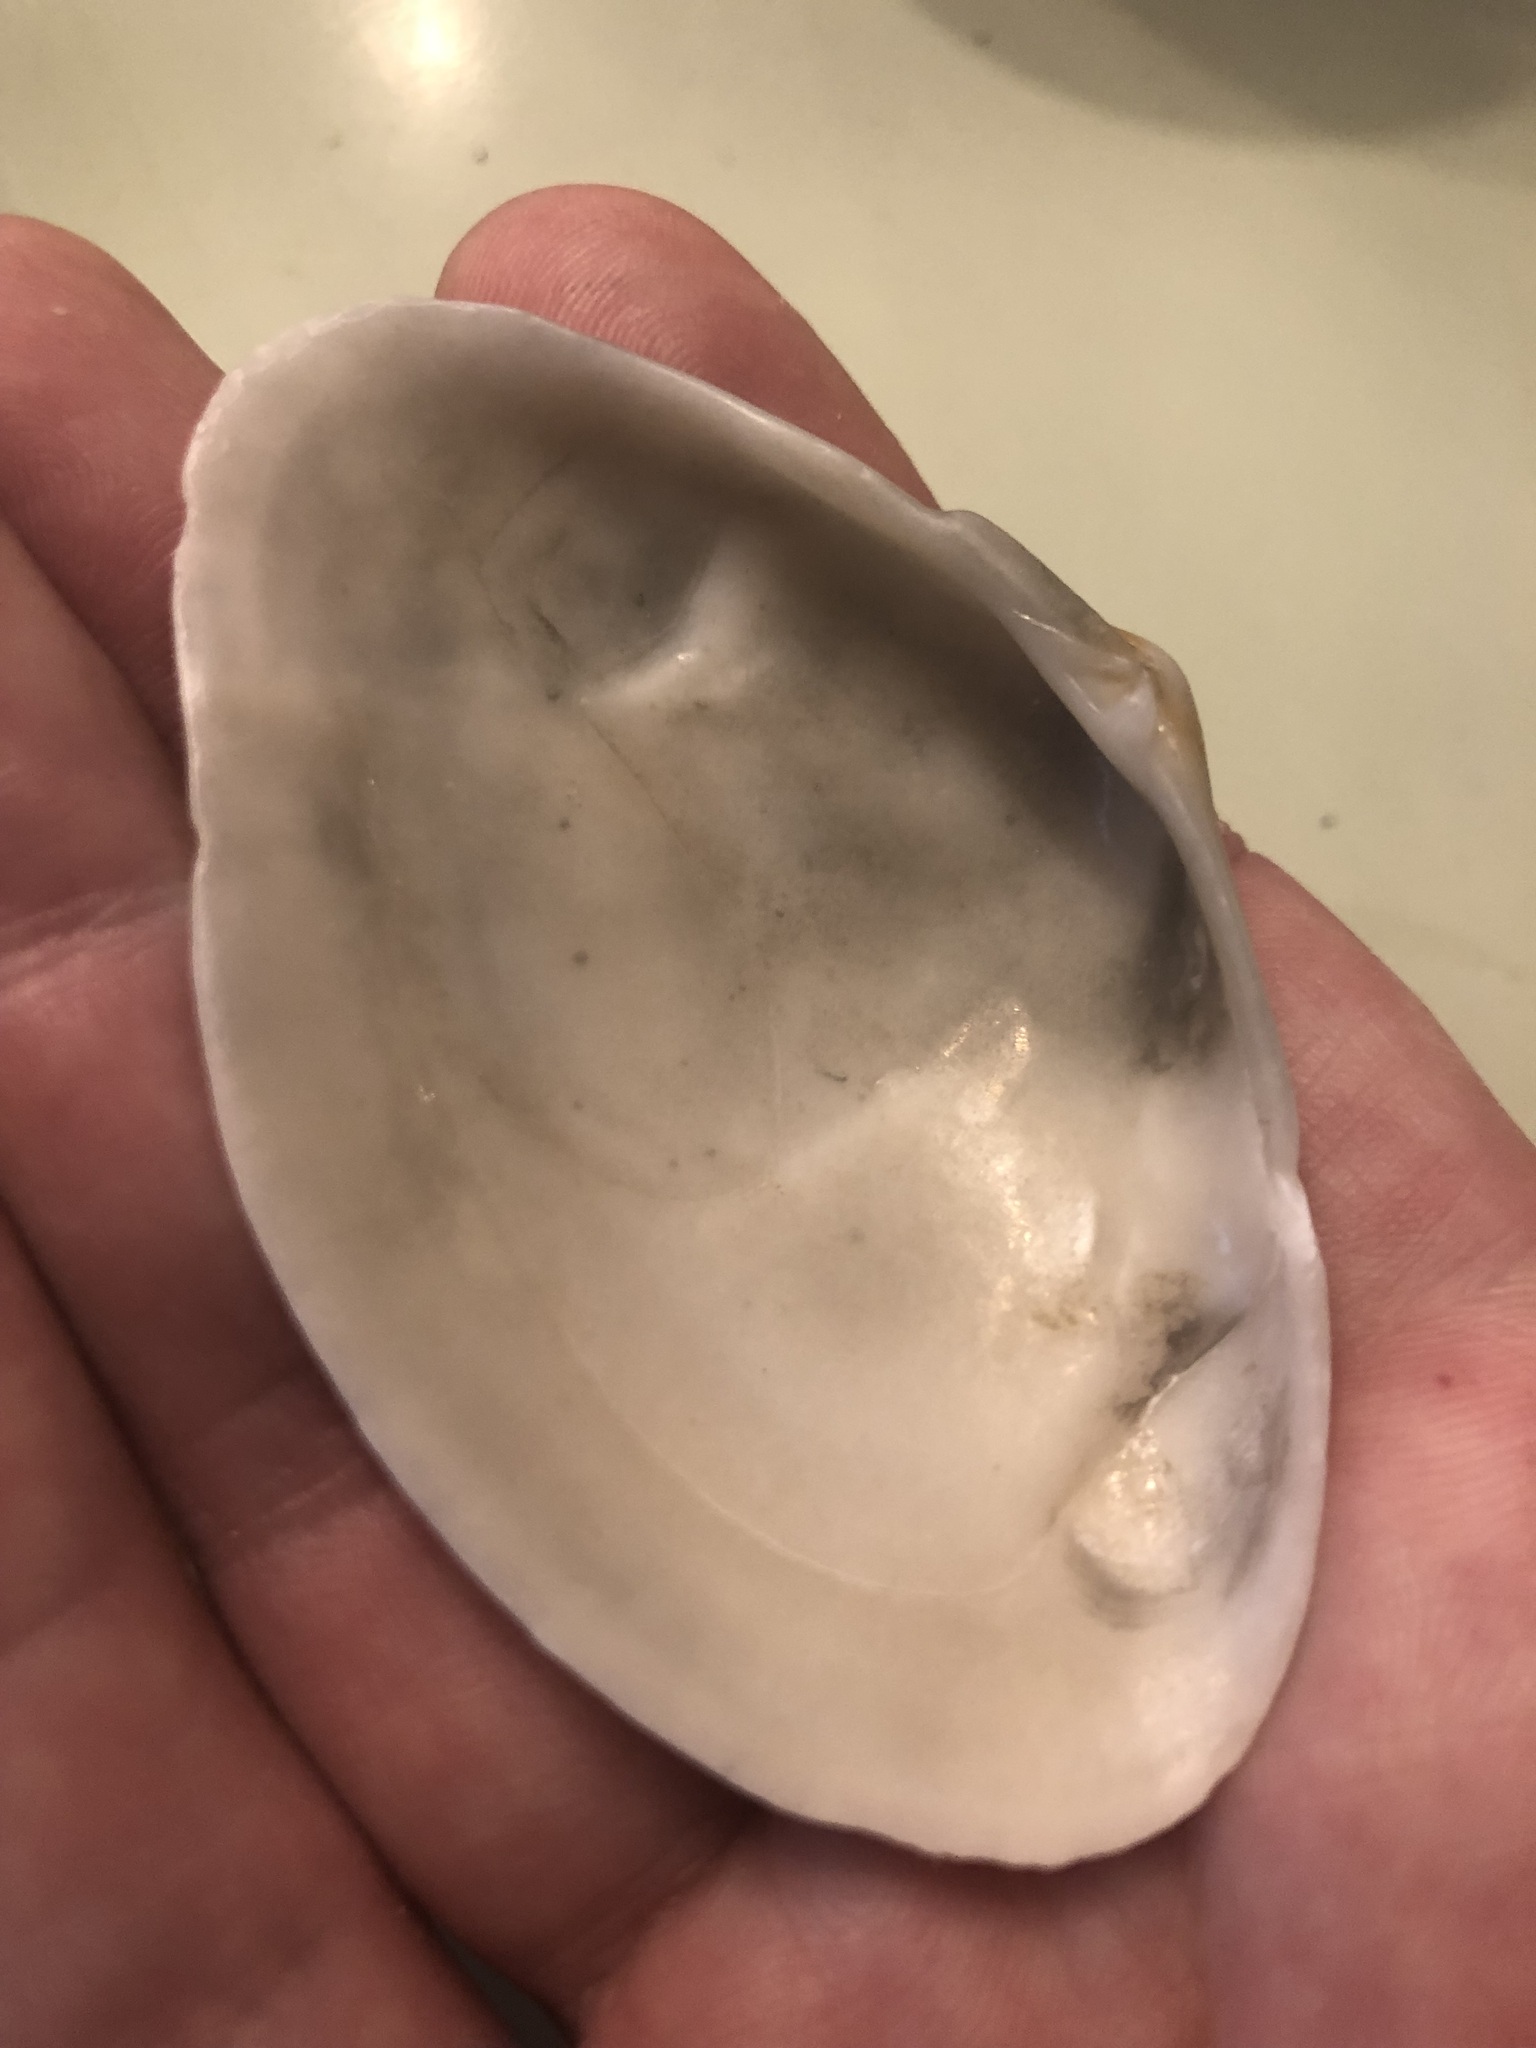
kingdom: Animalia
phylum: Mollusca
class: Bivalvia
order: Cardiida
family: Donacidae
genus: Iphigenia
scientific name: Iphigenia brasiliensis
